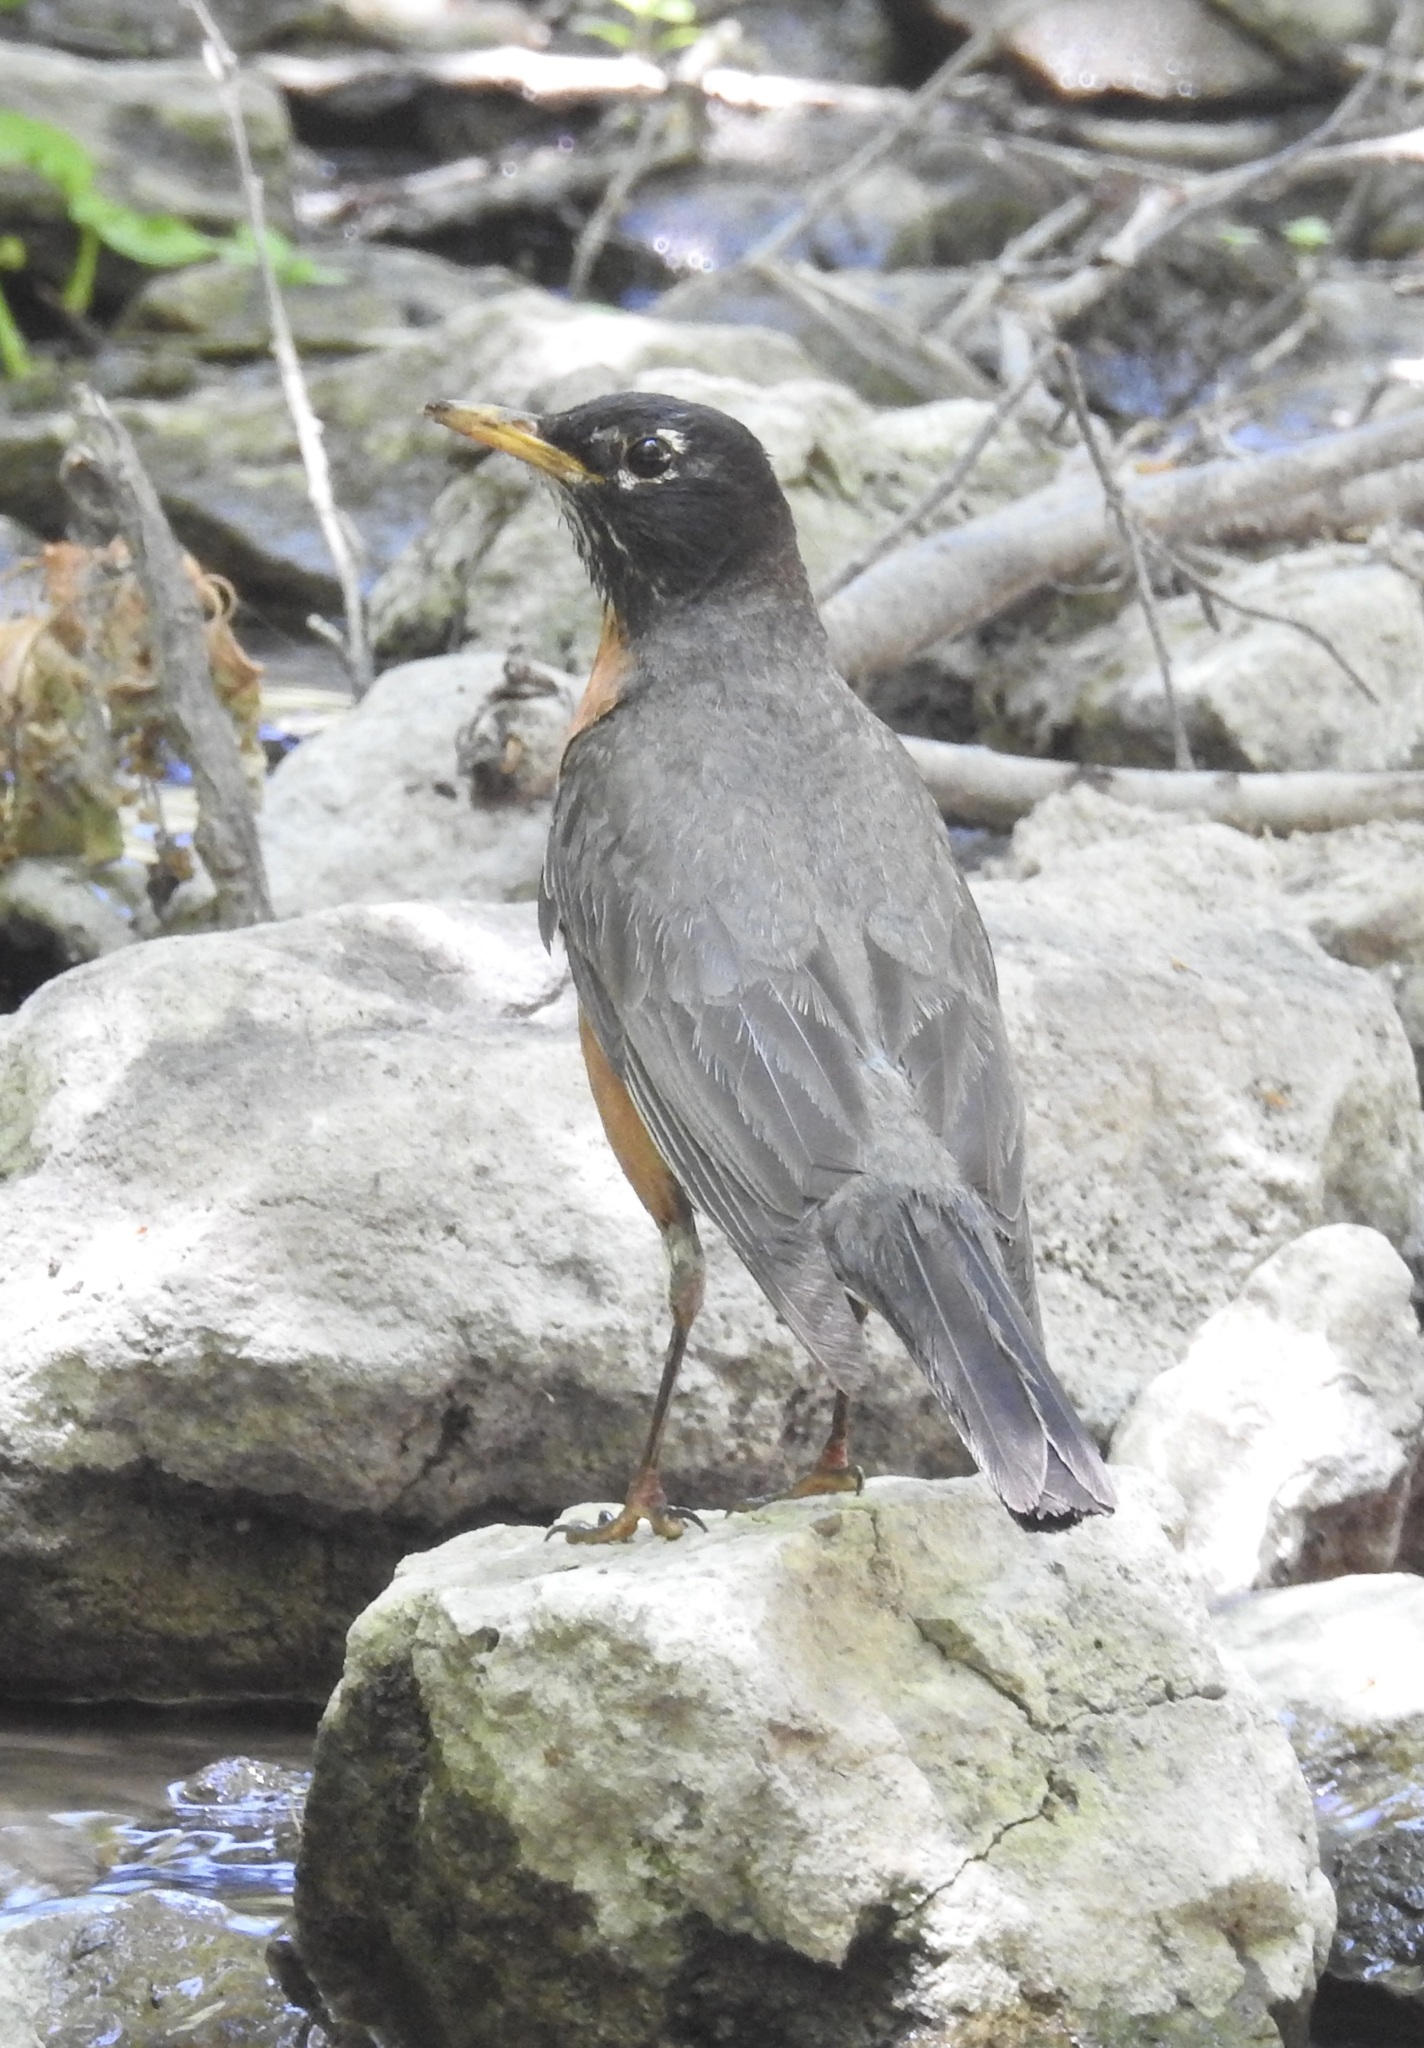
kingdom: Animalia
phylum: Chordata
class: Aves
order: Passeriformes
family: Turdidae
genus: Turdus
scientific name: Turdus migratorius
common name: American robin
